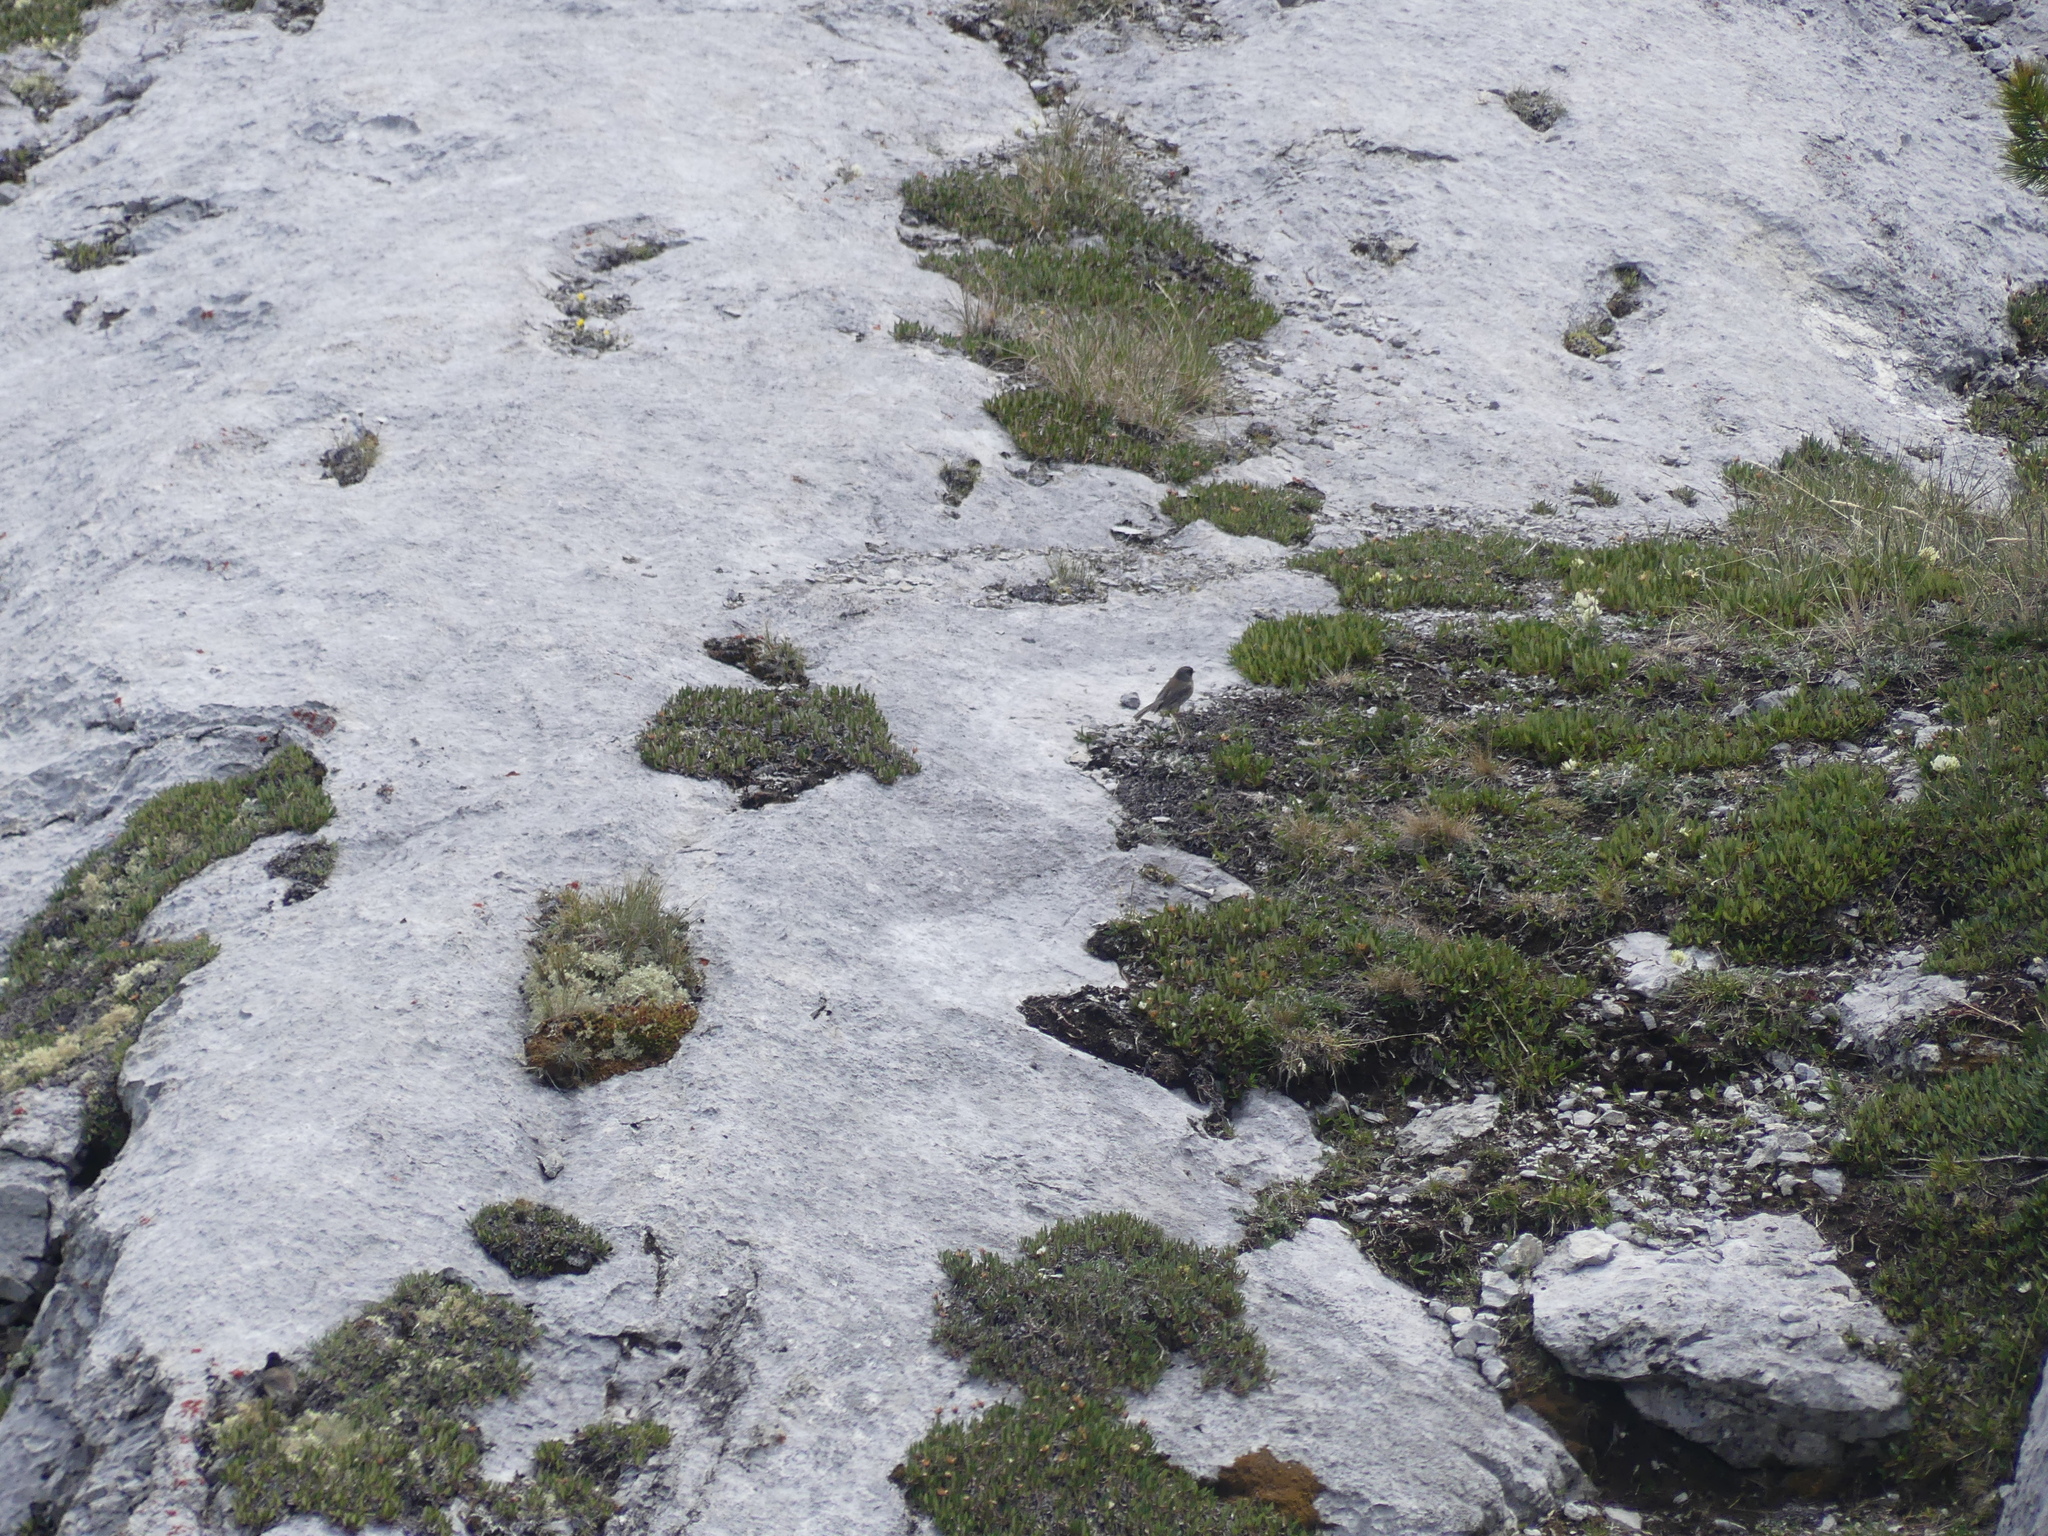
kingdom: Animalia
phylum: Chordata
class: Aves
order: Passeriformes
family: Passerellidae
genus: Junco
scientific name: Junco hyemalis
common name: Dark-eyed junco
